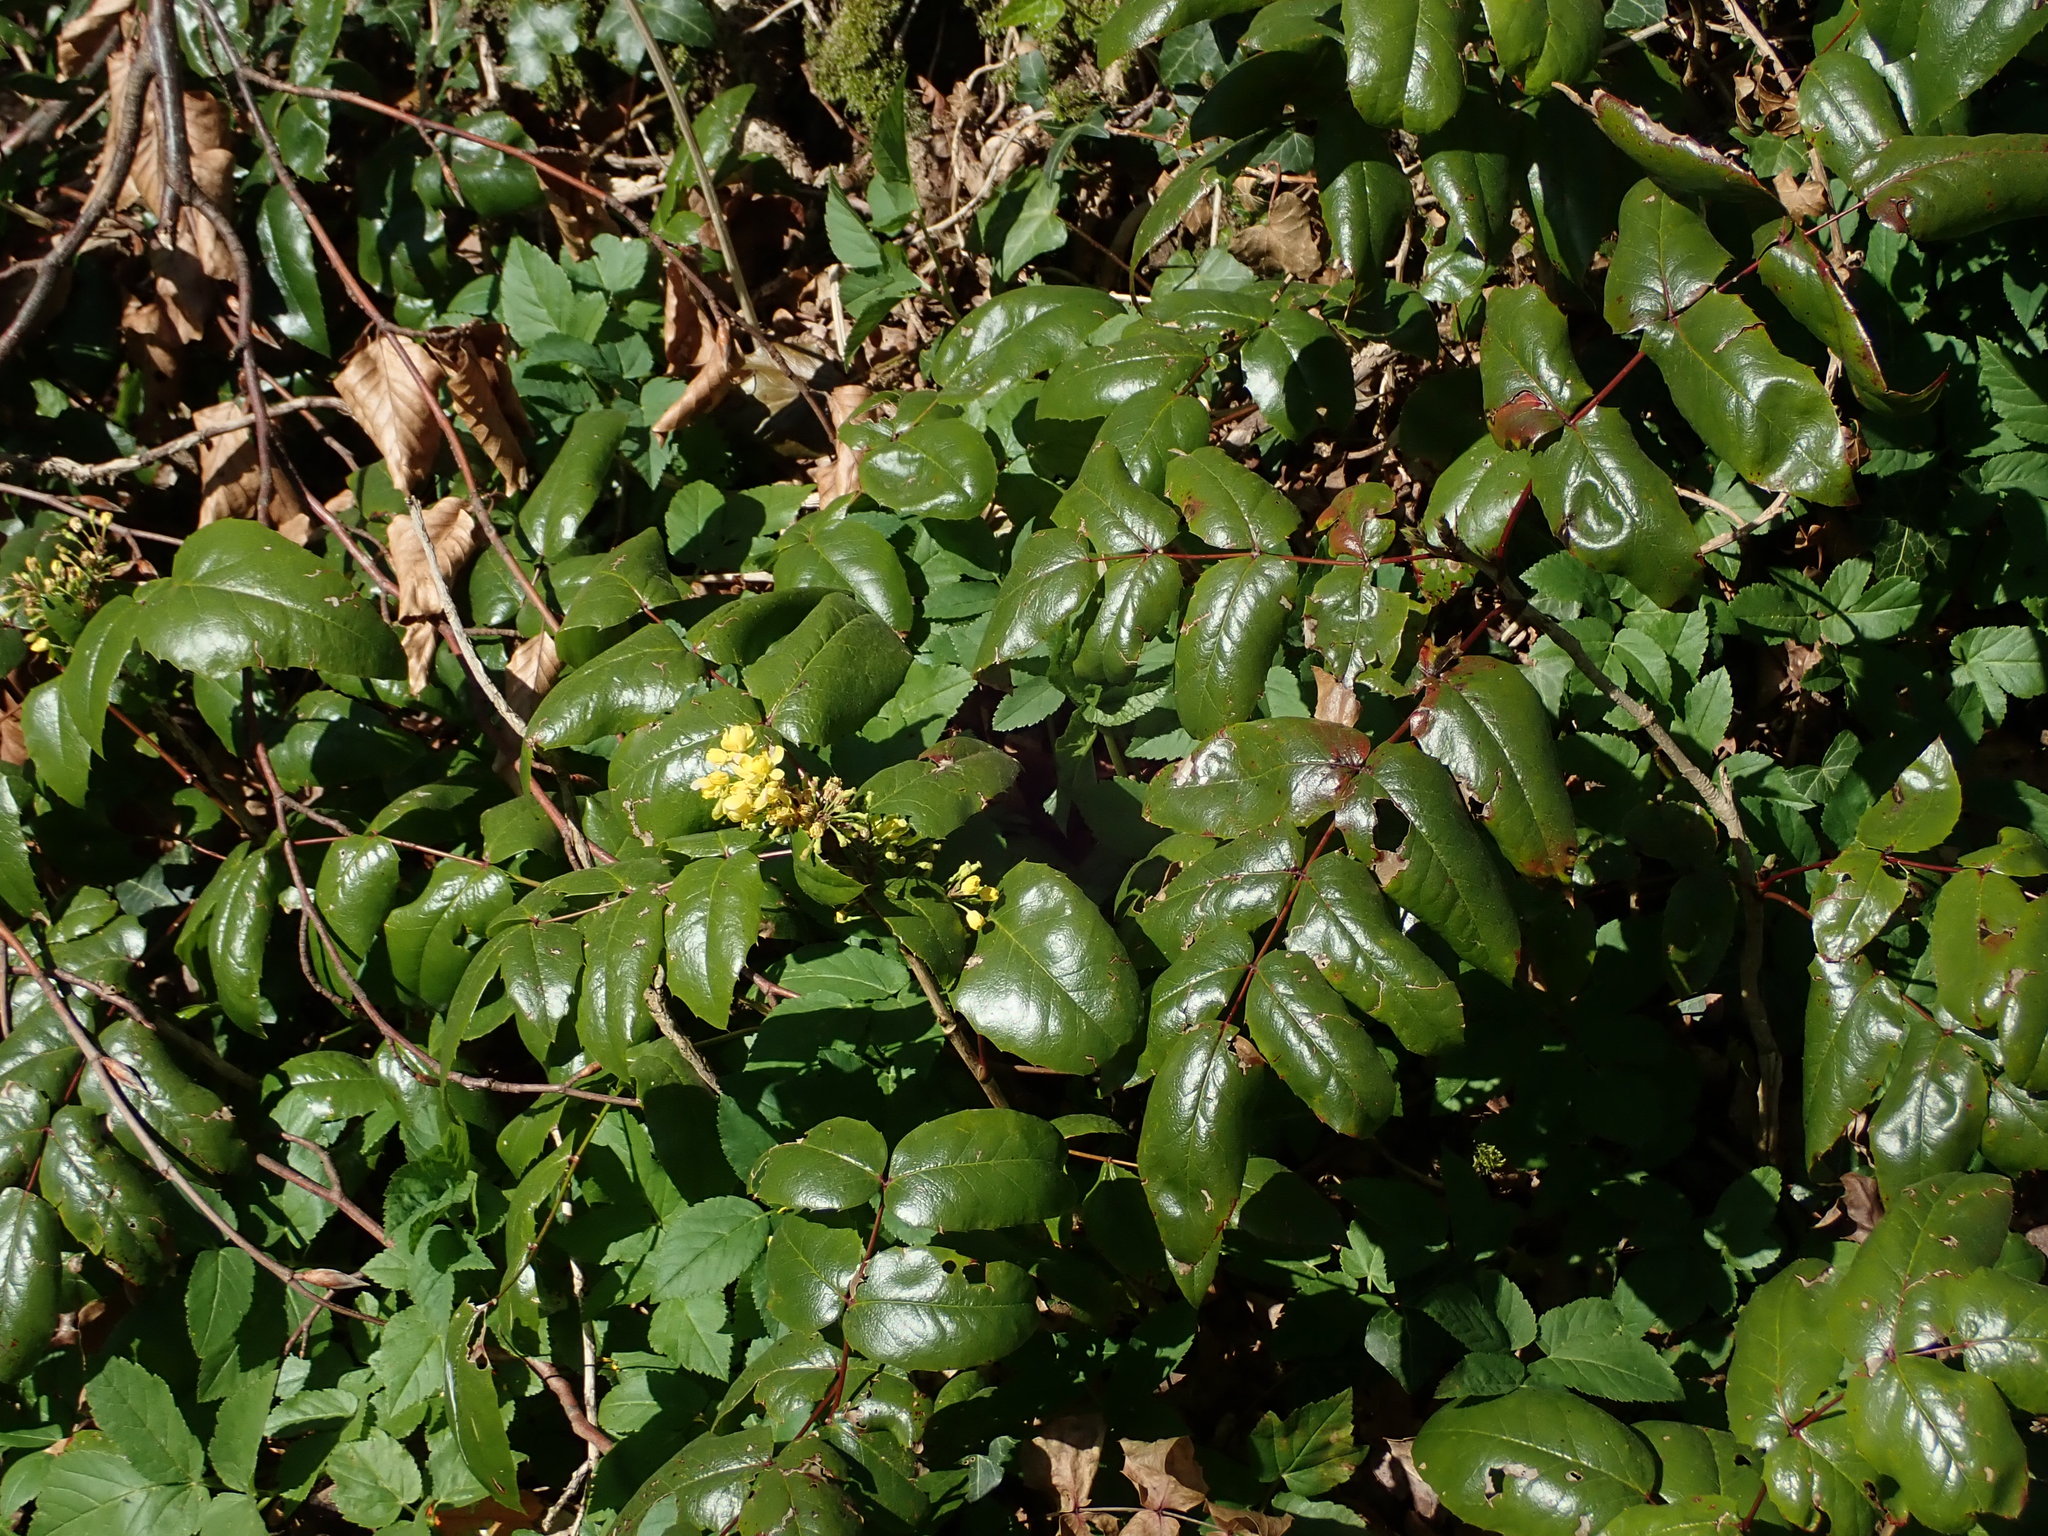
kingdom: Plantae
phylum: Tracheophyta
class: Magnoliopsida
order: Ranunculales
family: Berberidaceae
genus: Mahonia
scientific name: Mahonia aquifolium
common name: Oregon-grape
